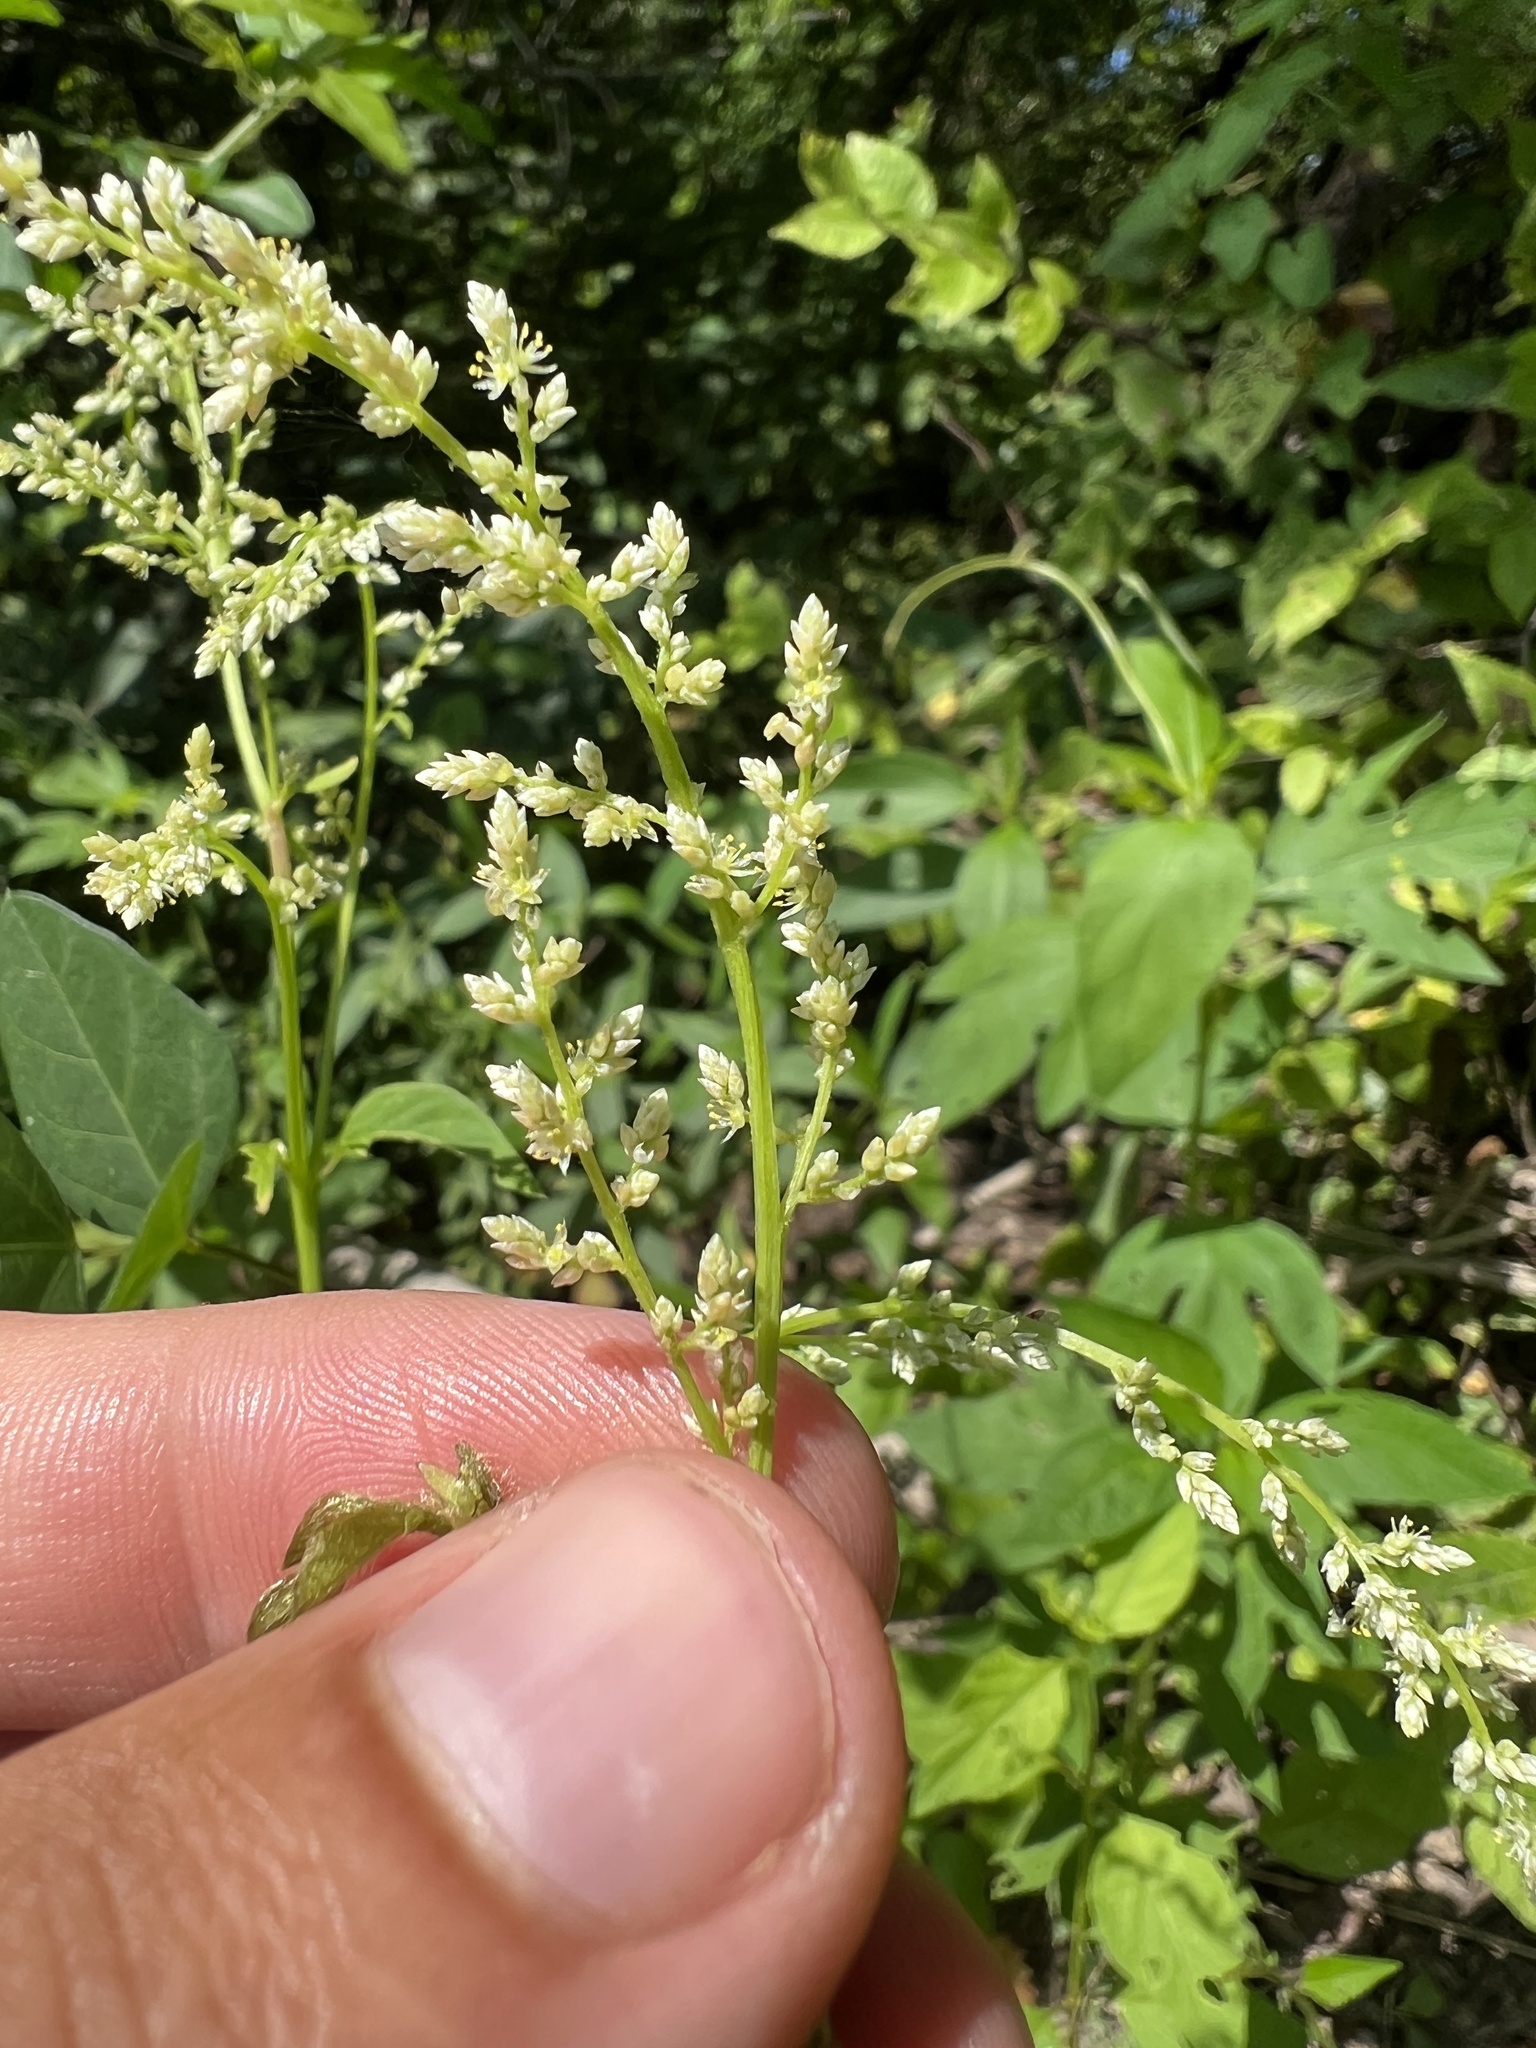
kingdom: Plantae
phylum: Tracheophyta
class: Magnoliopsida
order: Caryophyllales
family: Amaranthaceae
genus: Iresine
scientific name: Iresine rhizomatosa
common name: Juda's-bush
